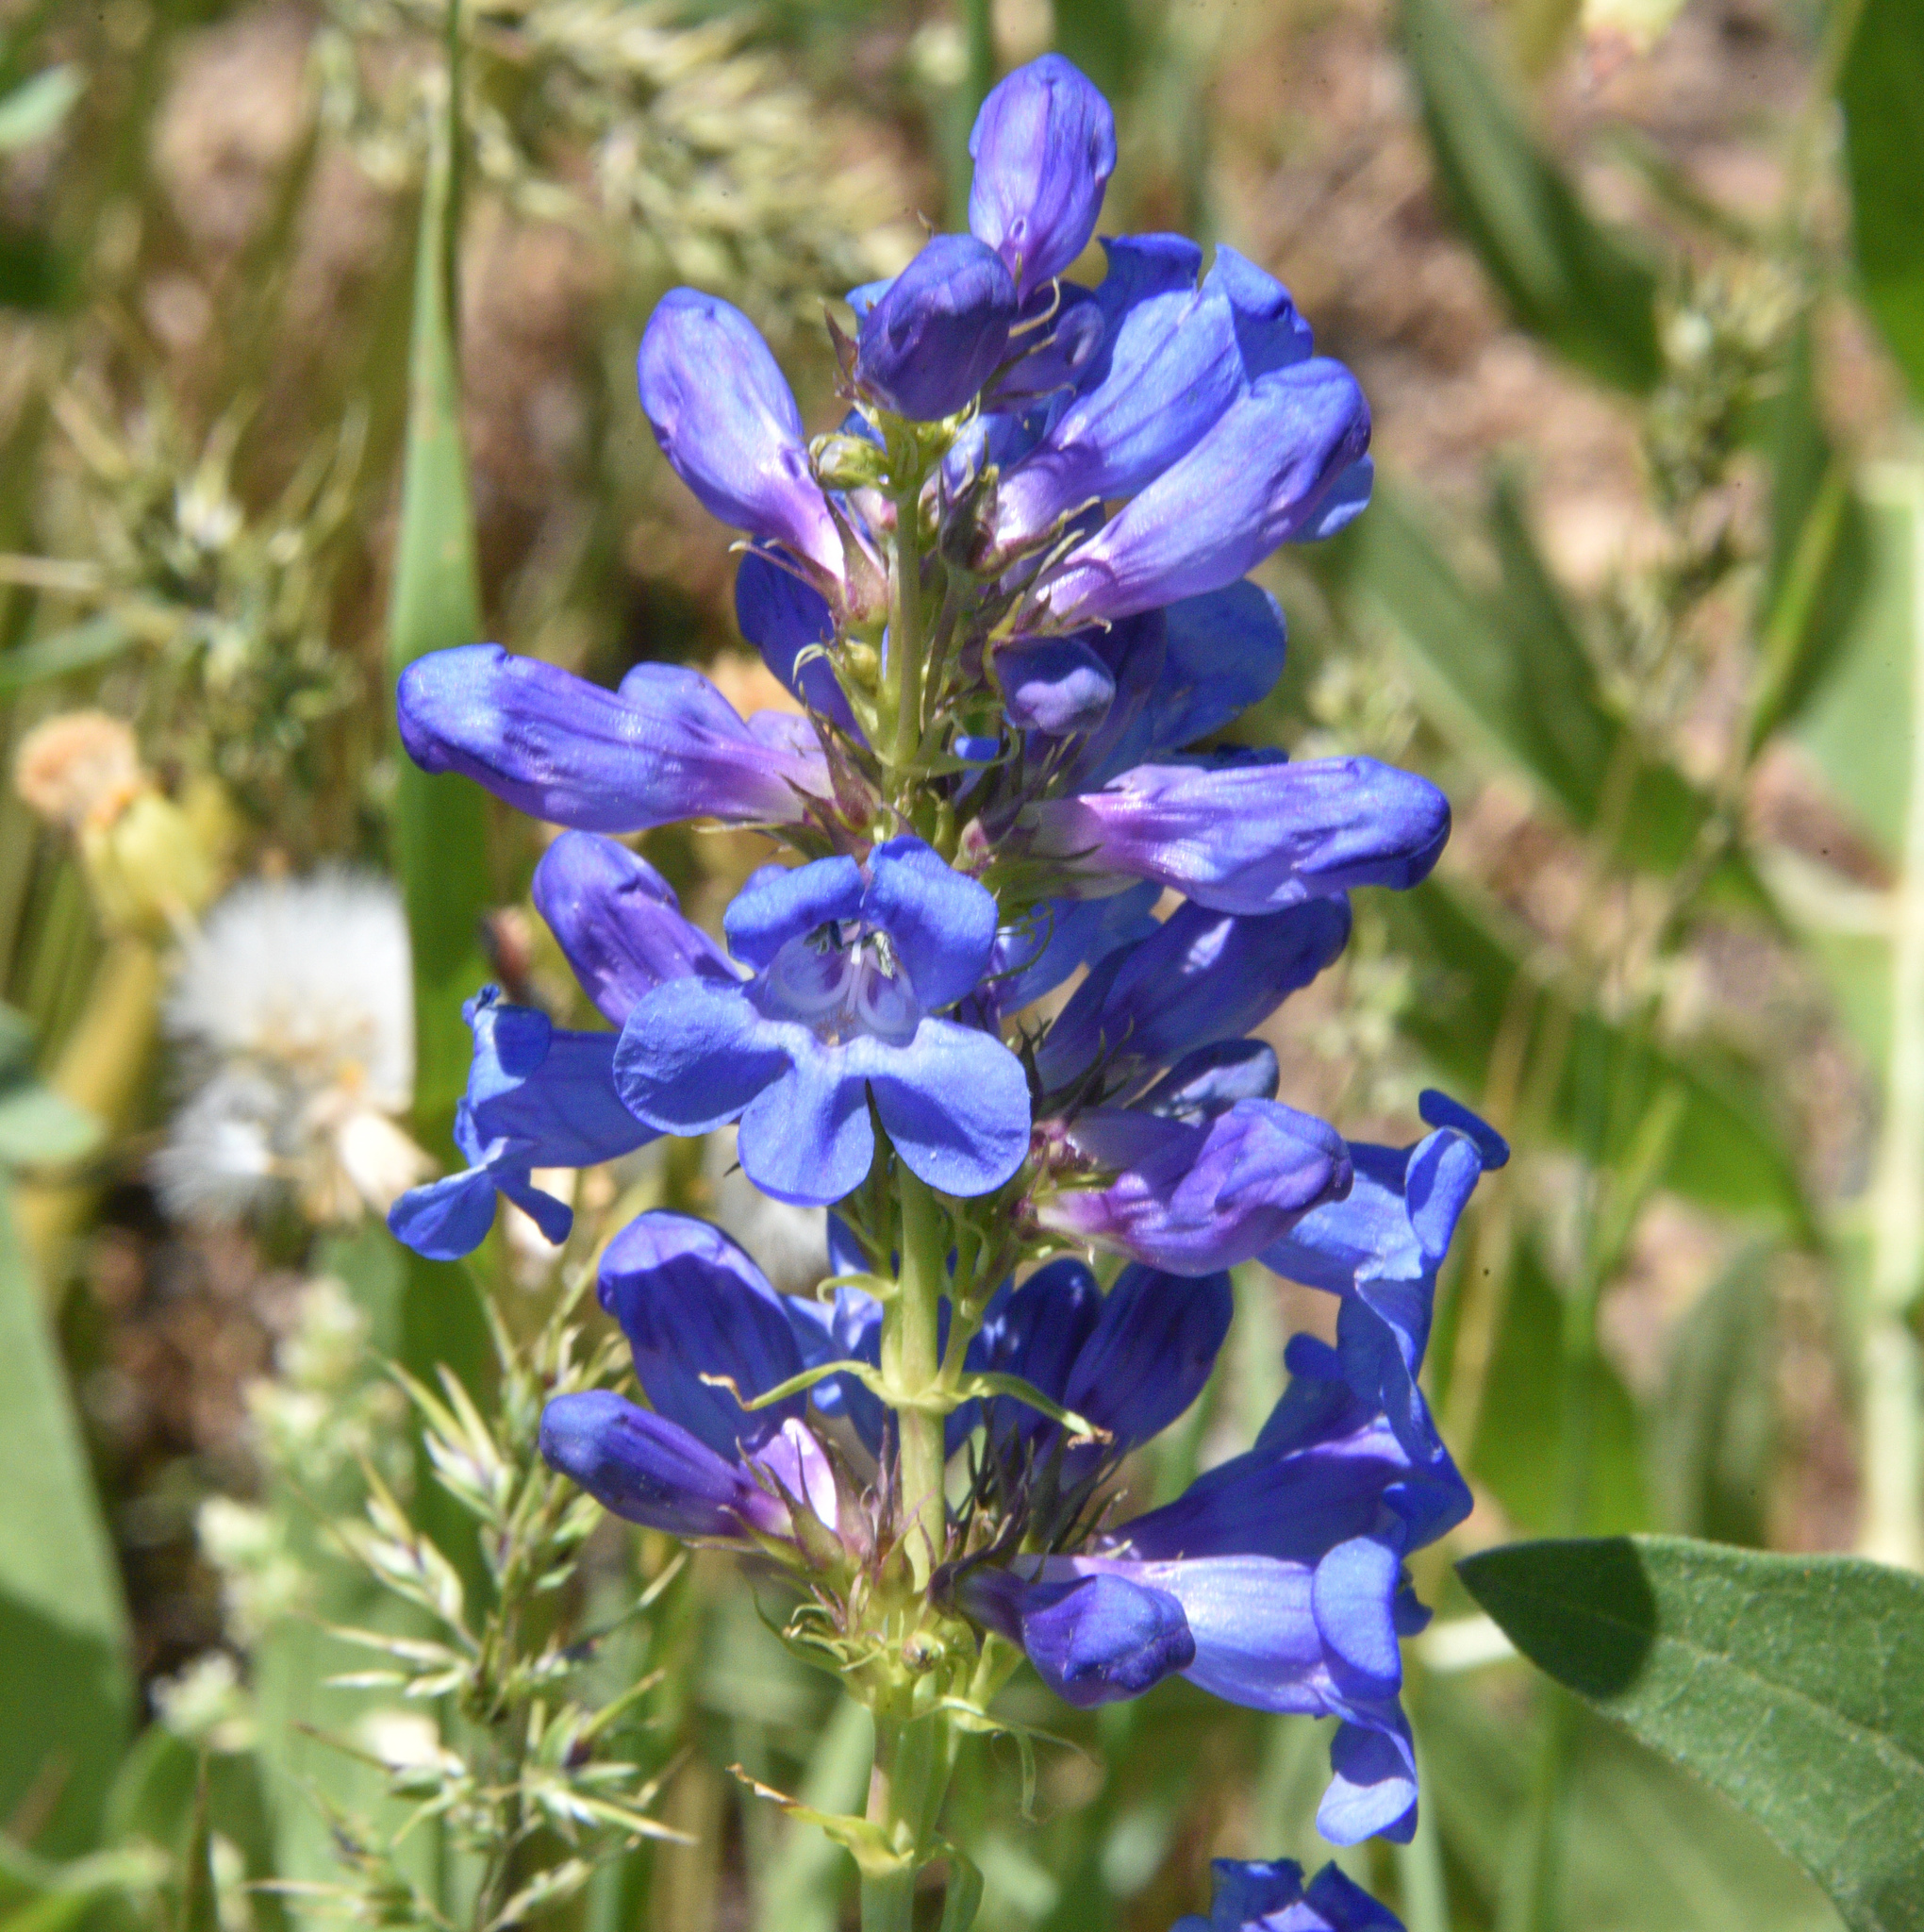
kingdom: Plantae
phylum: Tracheophyta
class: Magnoliopsida
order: Lamiales
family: Plantaginaceae
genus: Penstemon
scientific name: Penstemon cyananthus
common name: Wasatch penstemon
